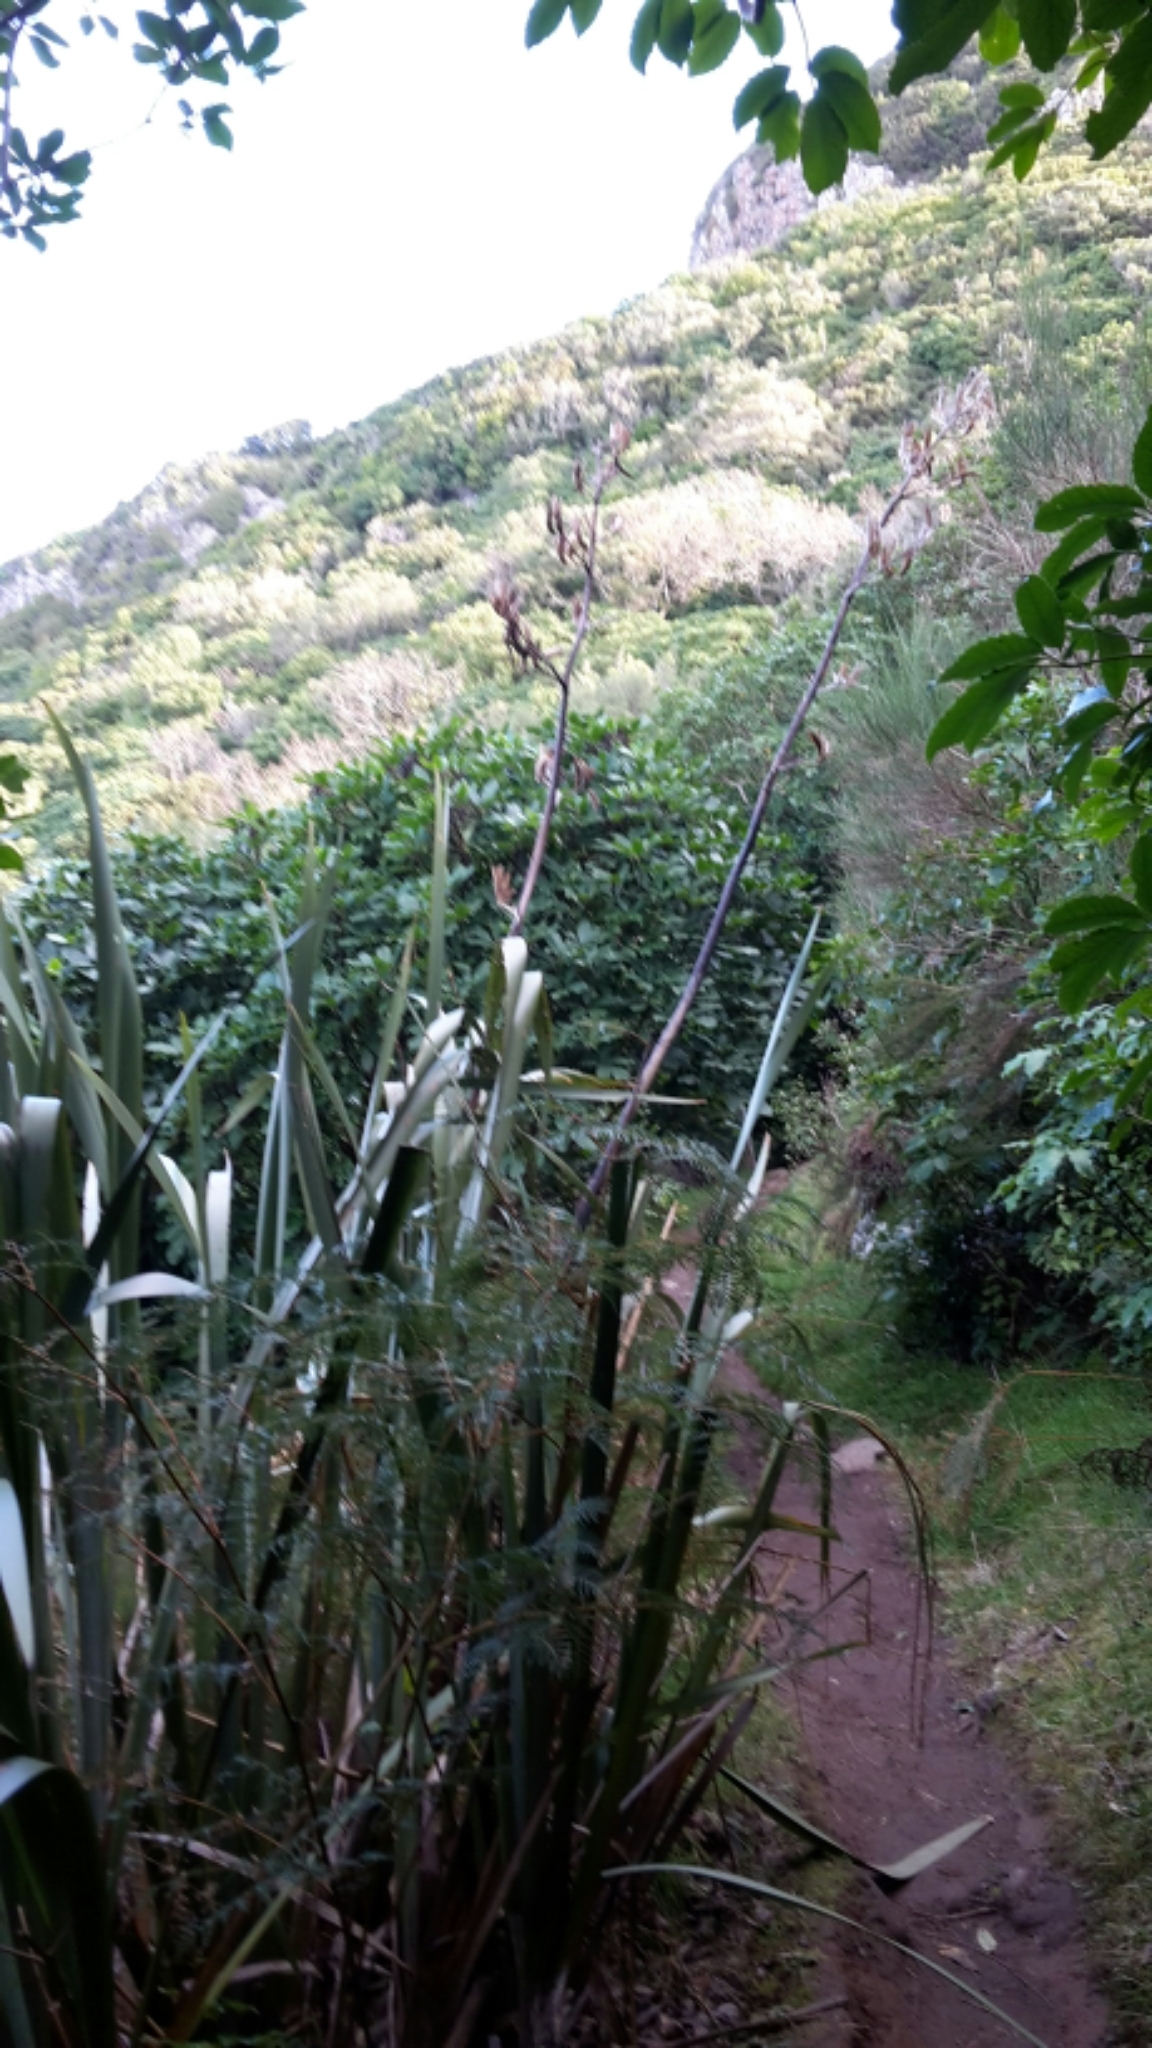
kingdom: Plantae
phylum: Tracheophyta
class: Liliopsida
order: Asparagales
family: Asphodelaceae
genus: Phormium
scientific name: Phormium tenax
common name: New zealand flax
